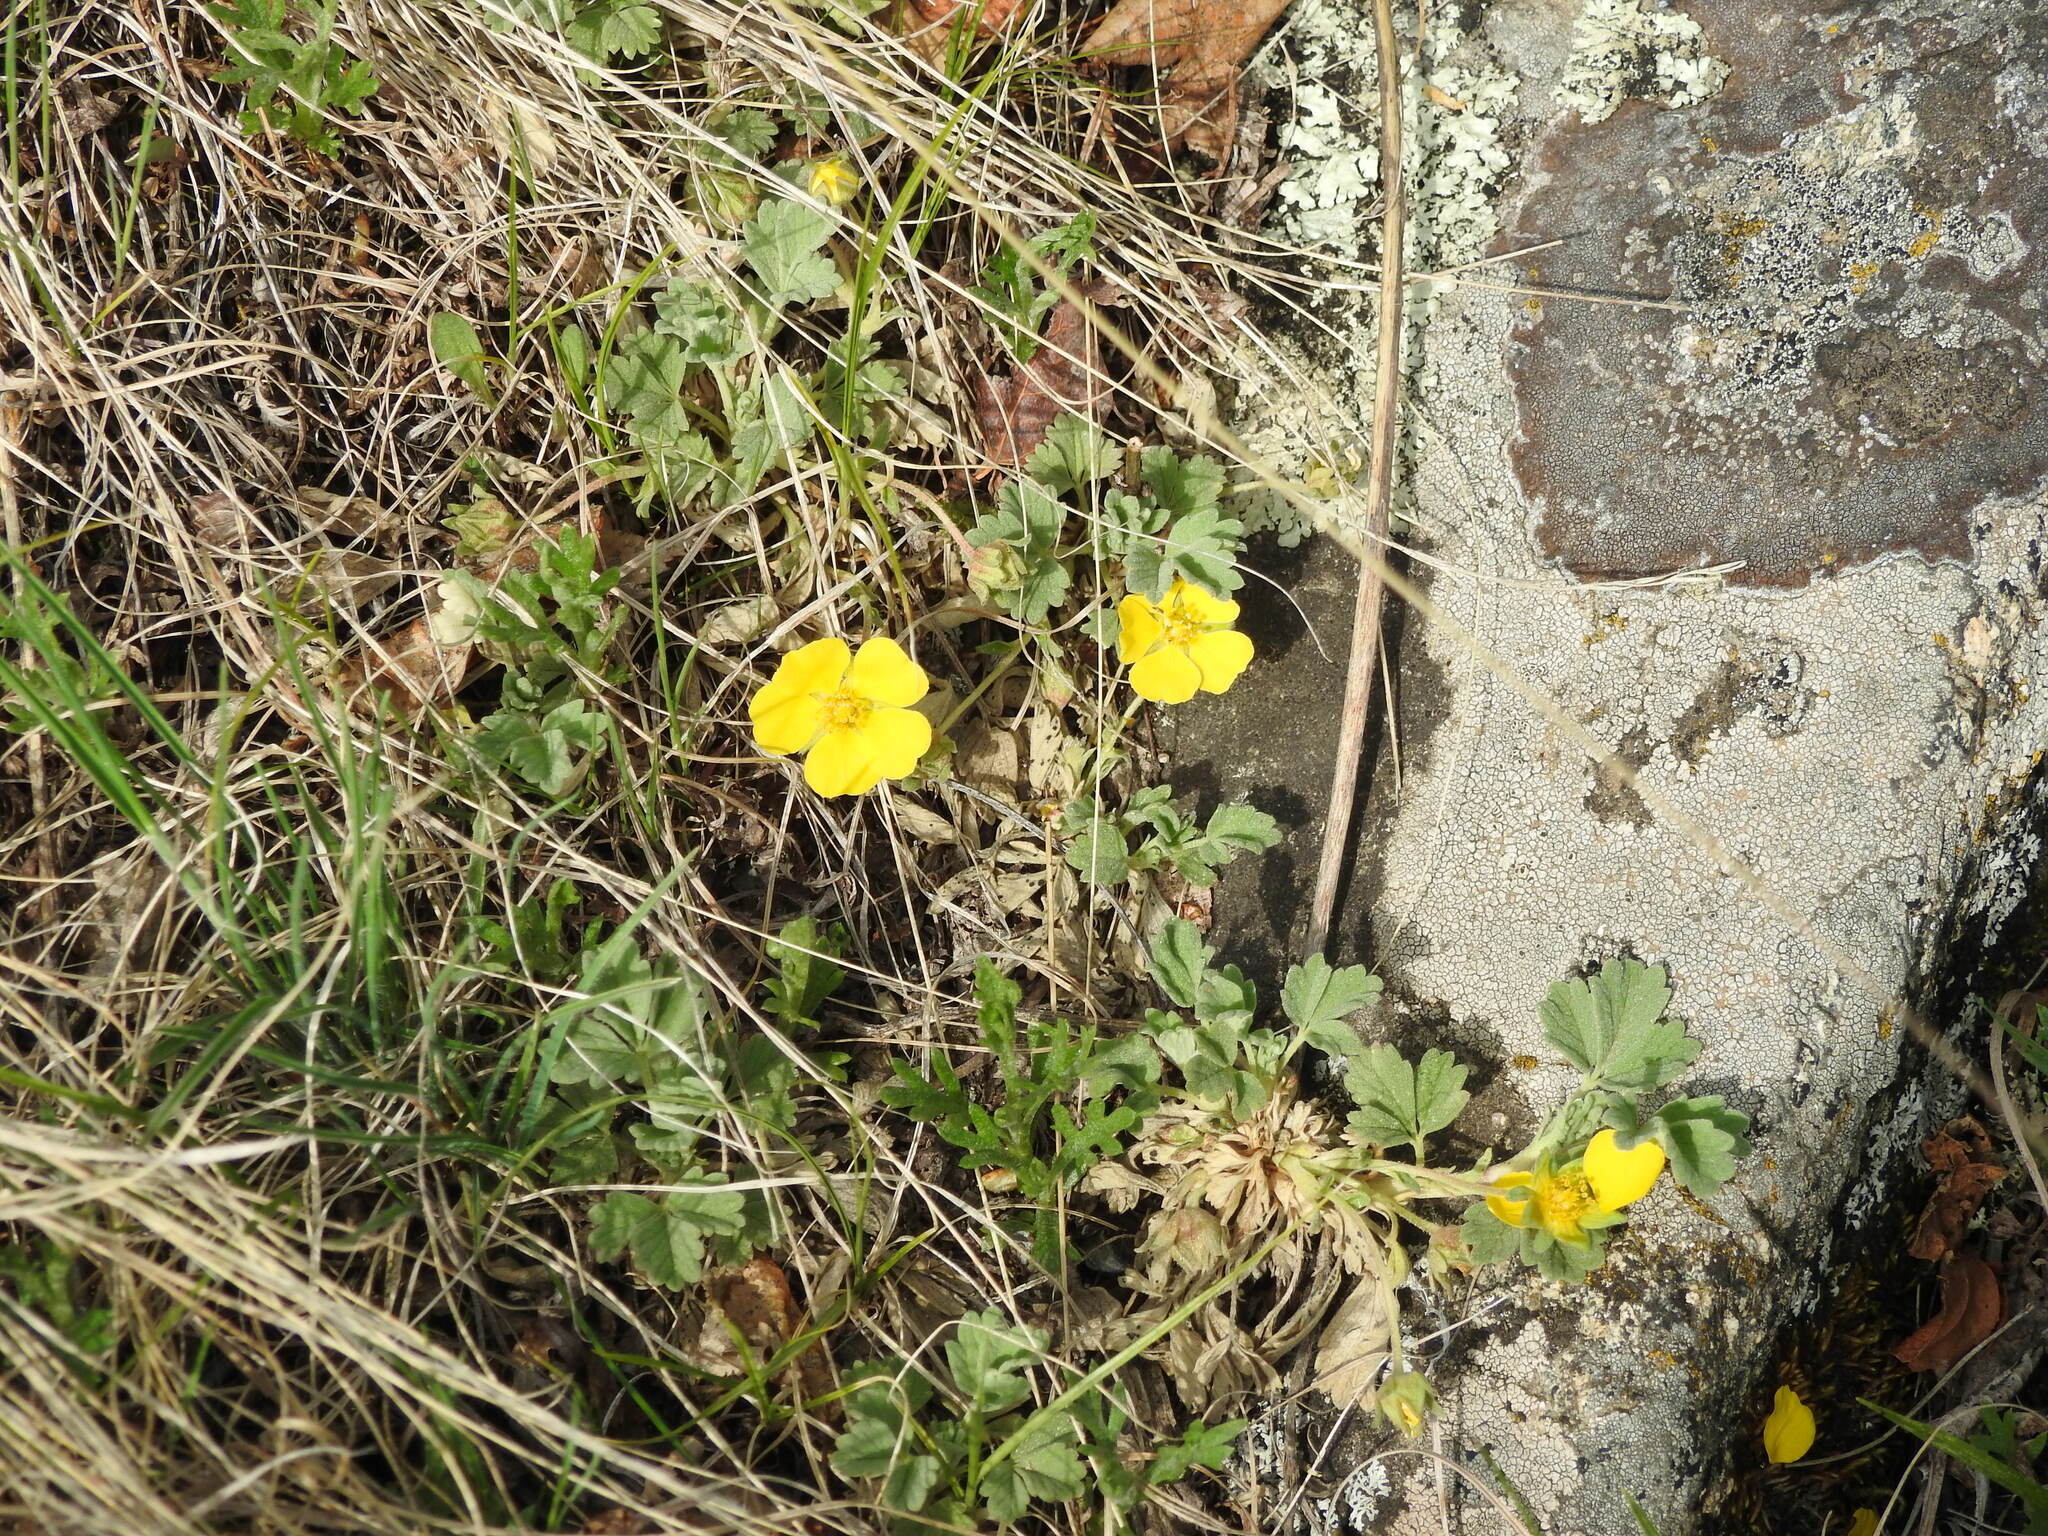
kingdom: Plantae
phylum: Tracheophyta
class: Magnoliopsida
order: Rosales
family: Rosaceae
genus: Potentilla
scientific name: Potentilla acaulis
